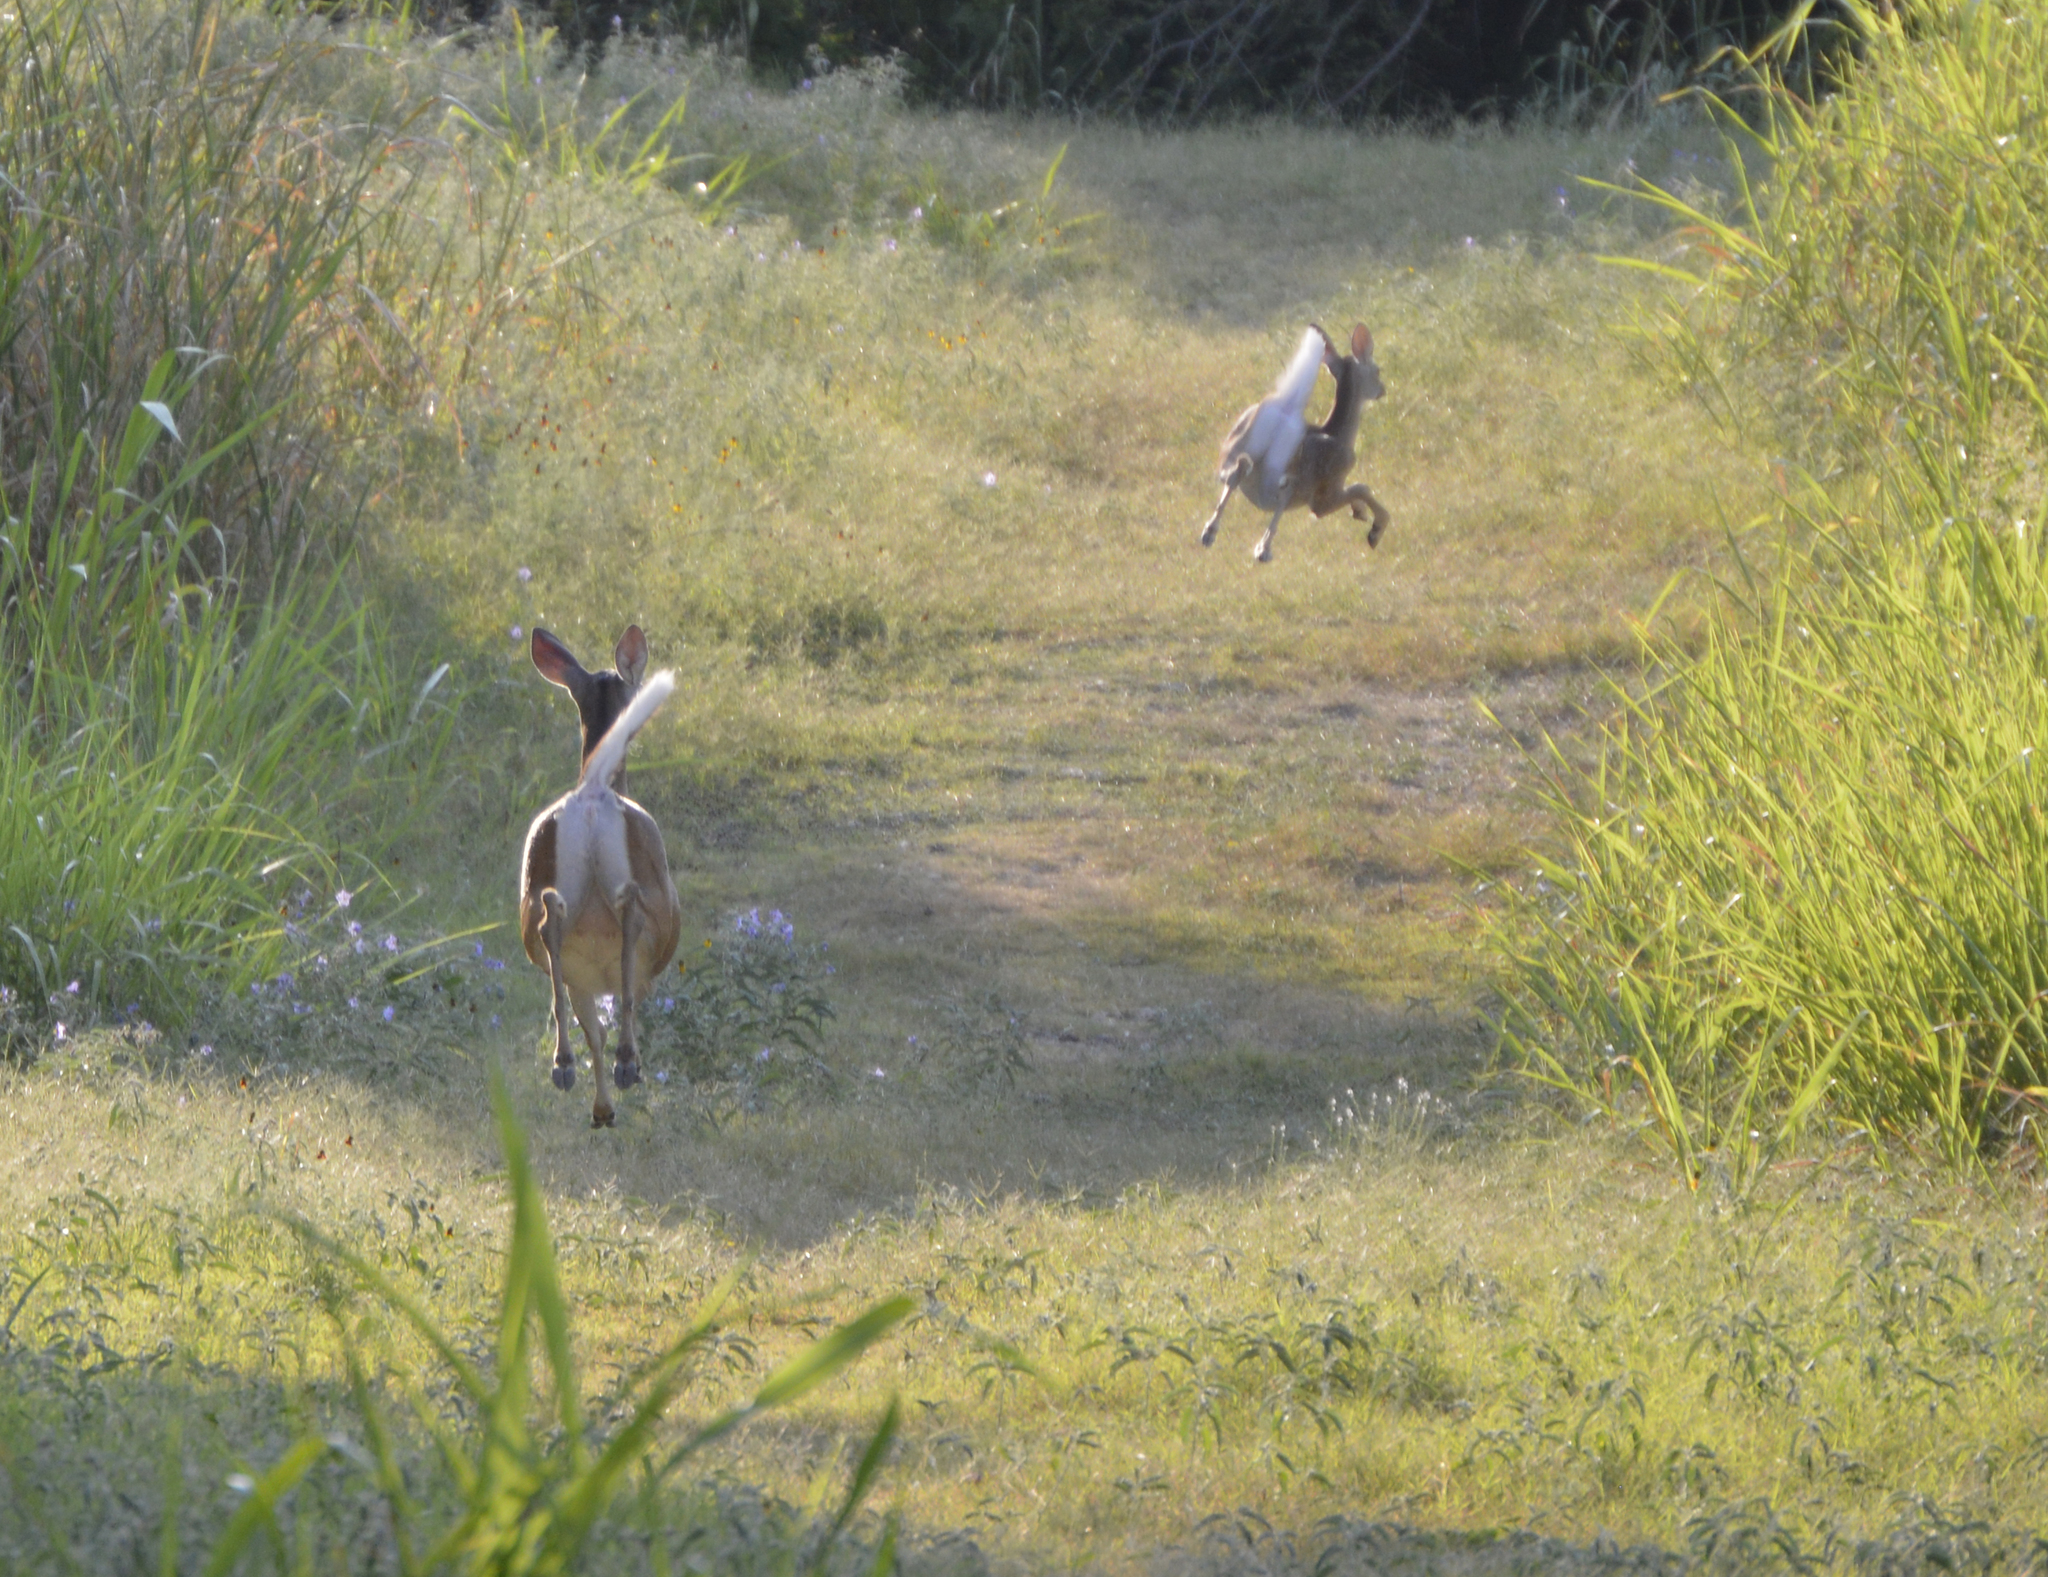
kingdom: Animalia
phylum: Chordata
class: Mammalia
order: Artiodactyla
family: Cervidae
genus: Odocoileus
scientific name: Odocoileus virginianus
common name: White-tailed deer
